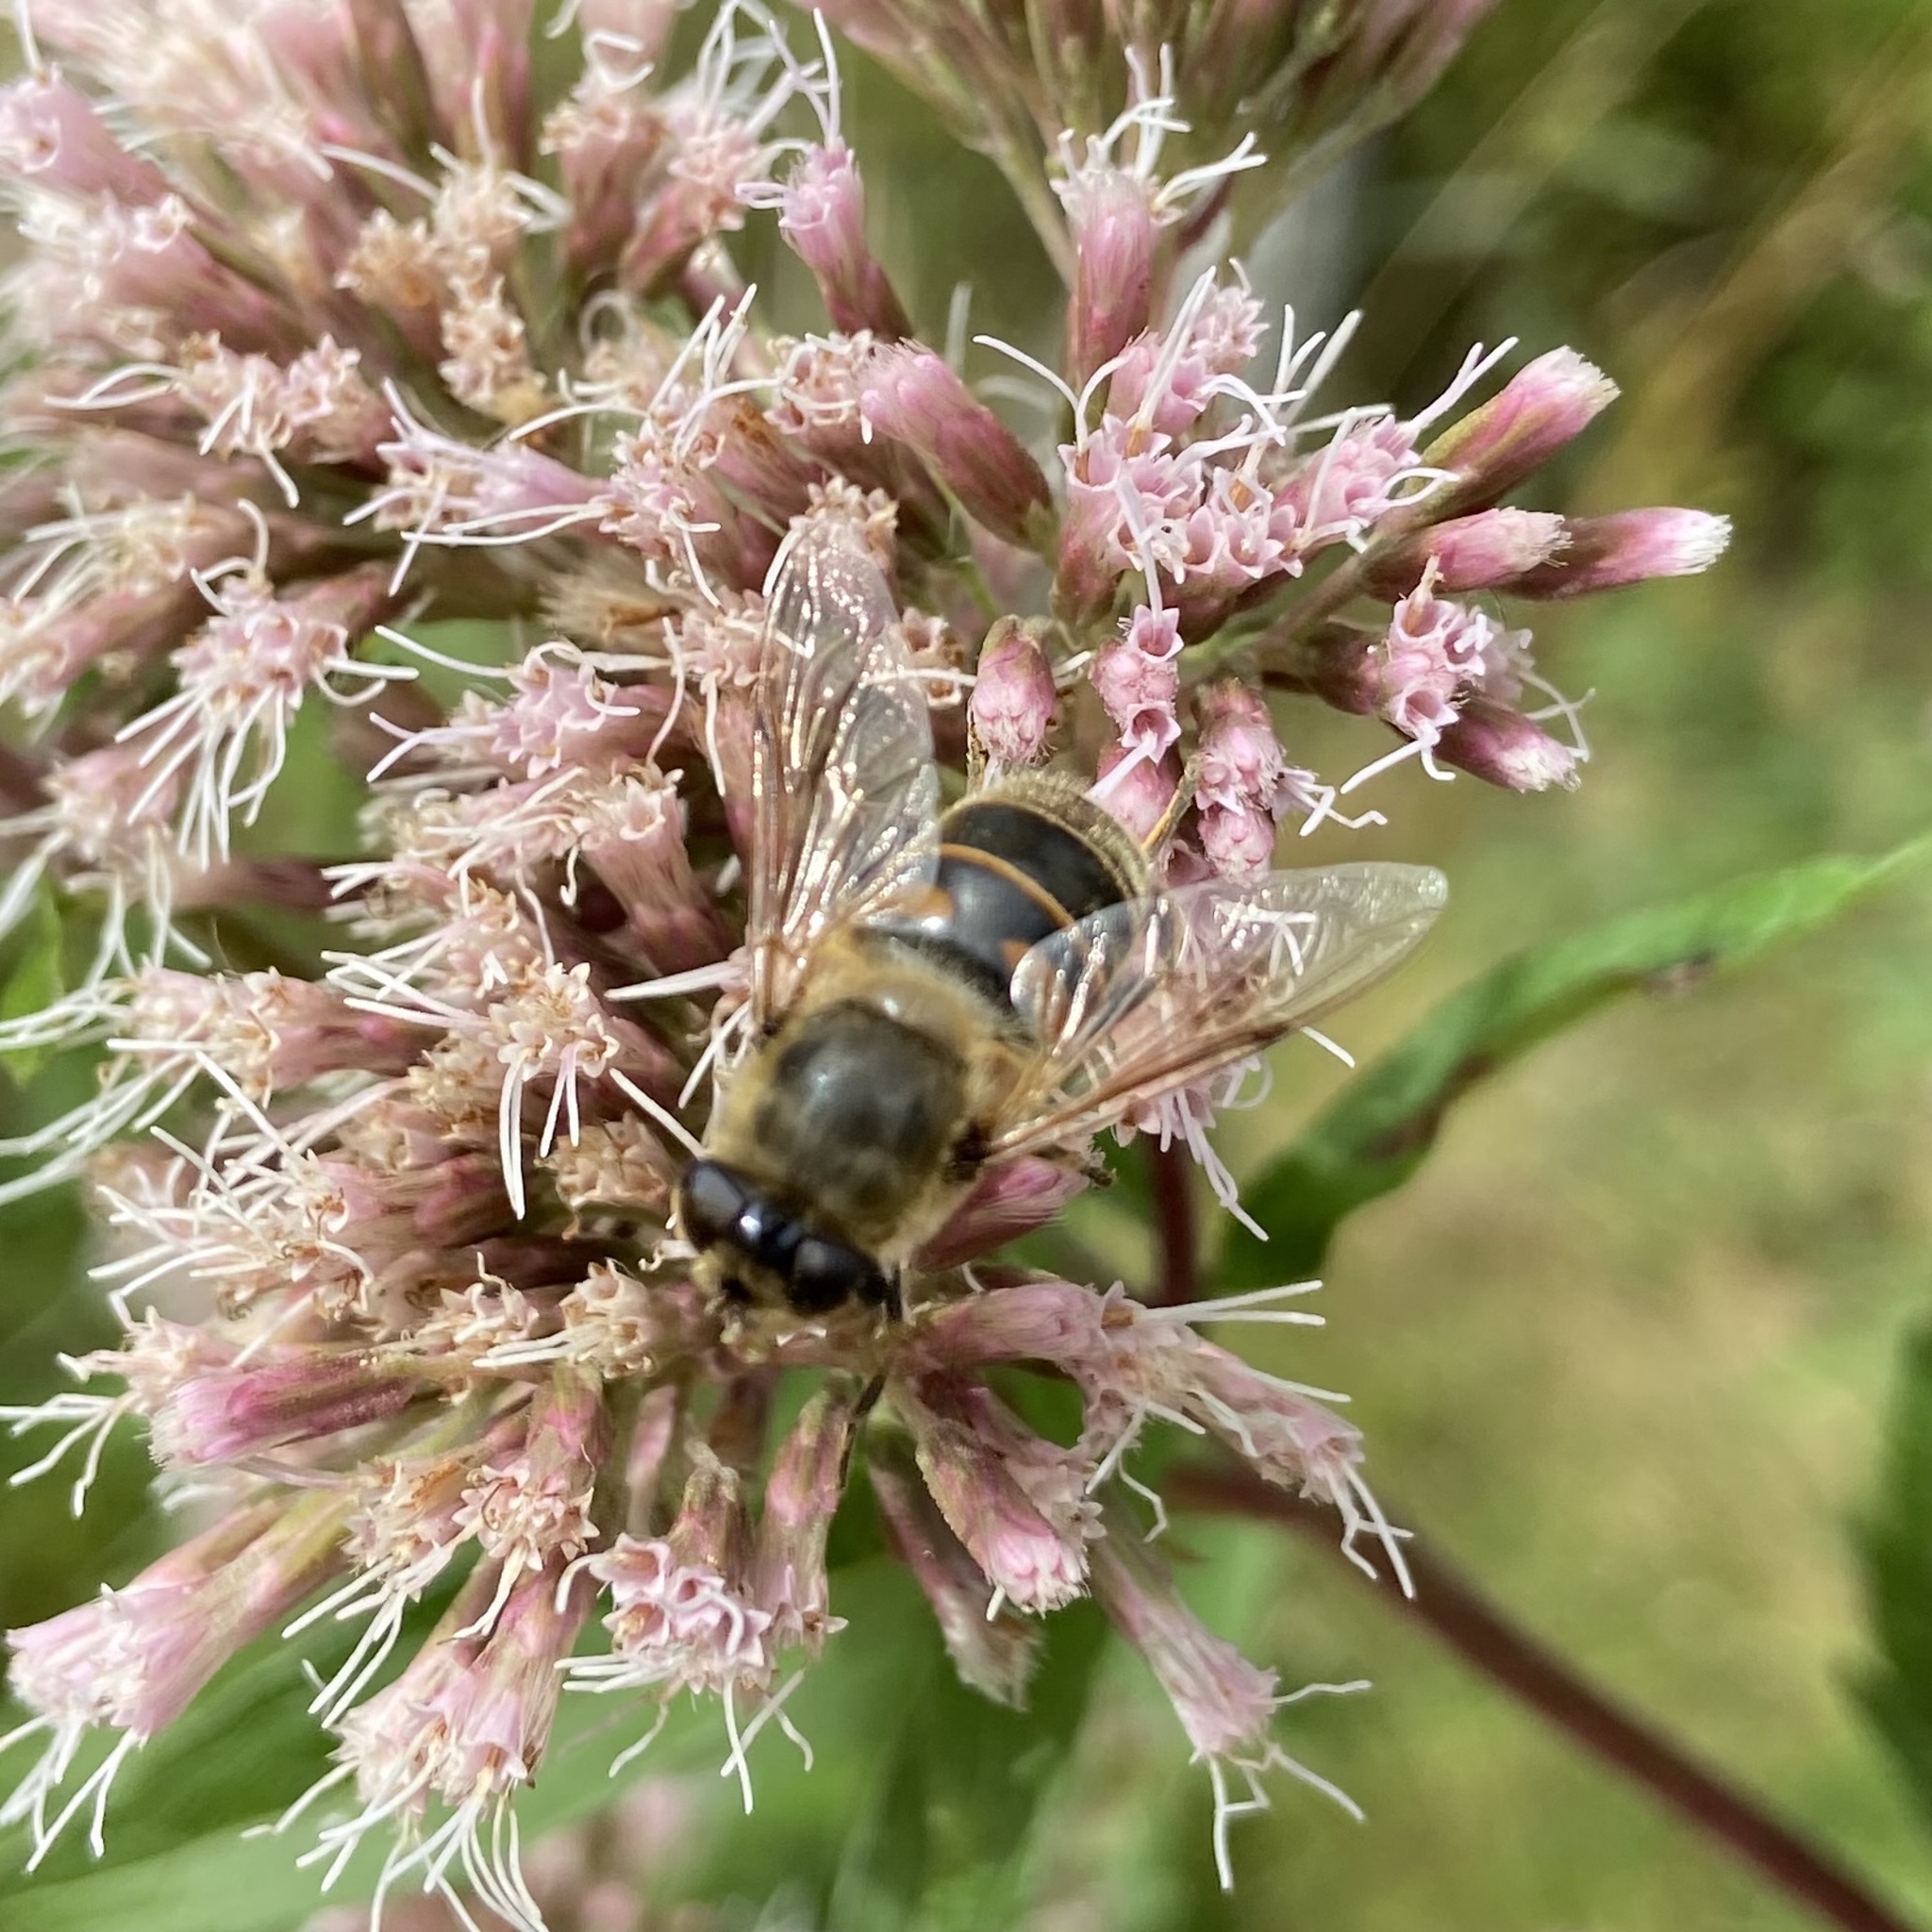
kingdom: Animalia
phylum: Arthropoda
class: Insecta
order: Diptera
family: Syrphidae
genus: Eristalis
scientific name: Eristalis tenax
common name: Drone fly
